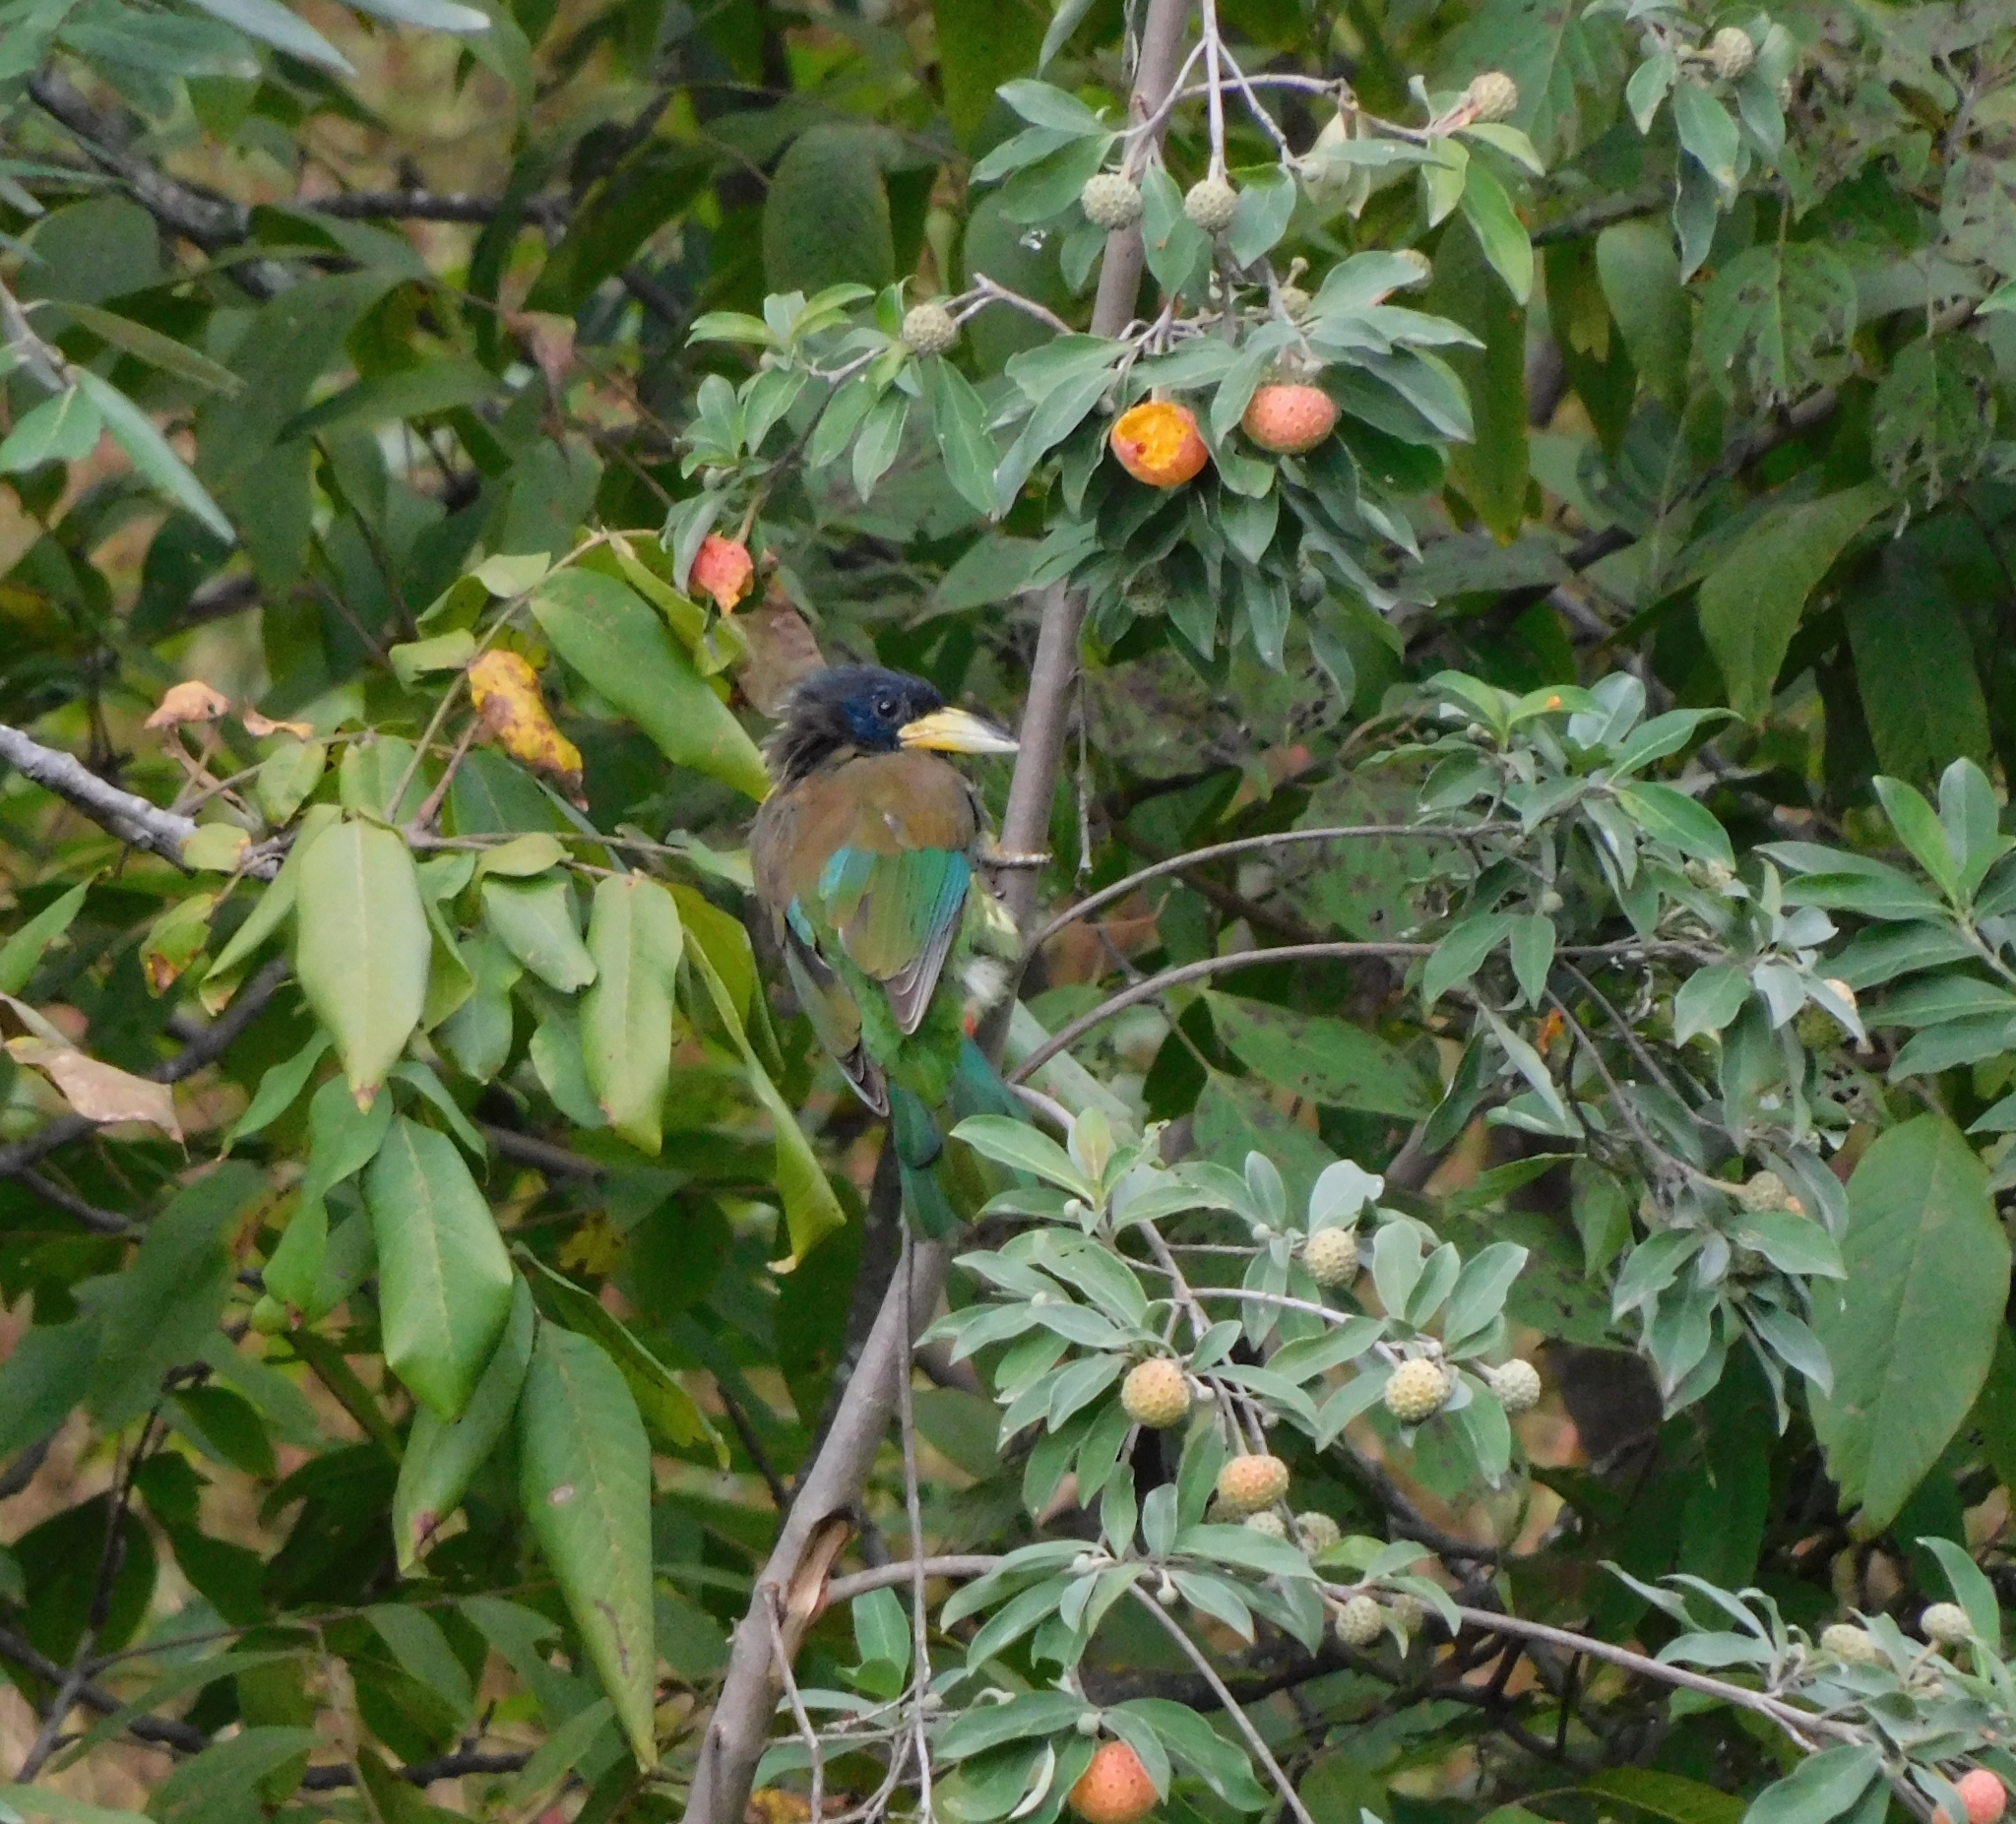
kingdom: Animalia
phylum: Chordata
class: Aves
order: Piciformes
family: Megalaimidae
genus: Psilopogon
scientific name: Psilopogon virens
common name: Great barbet
